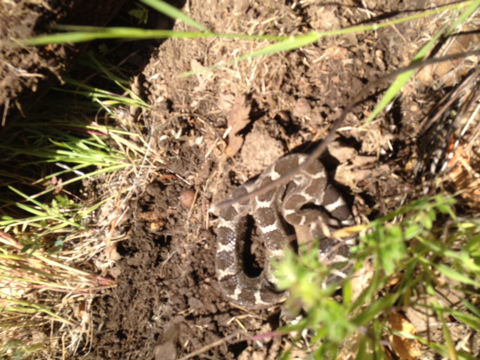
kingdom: Animalia
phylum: Chordata
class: Squamata
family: Viperidae
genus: Crotalus
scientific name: Crotalus oreganus
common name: Abyssus
